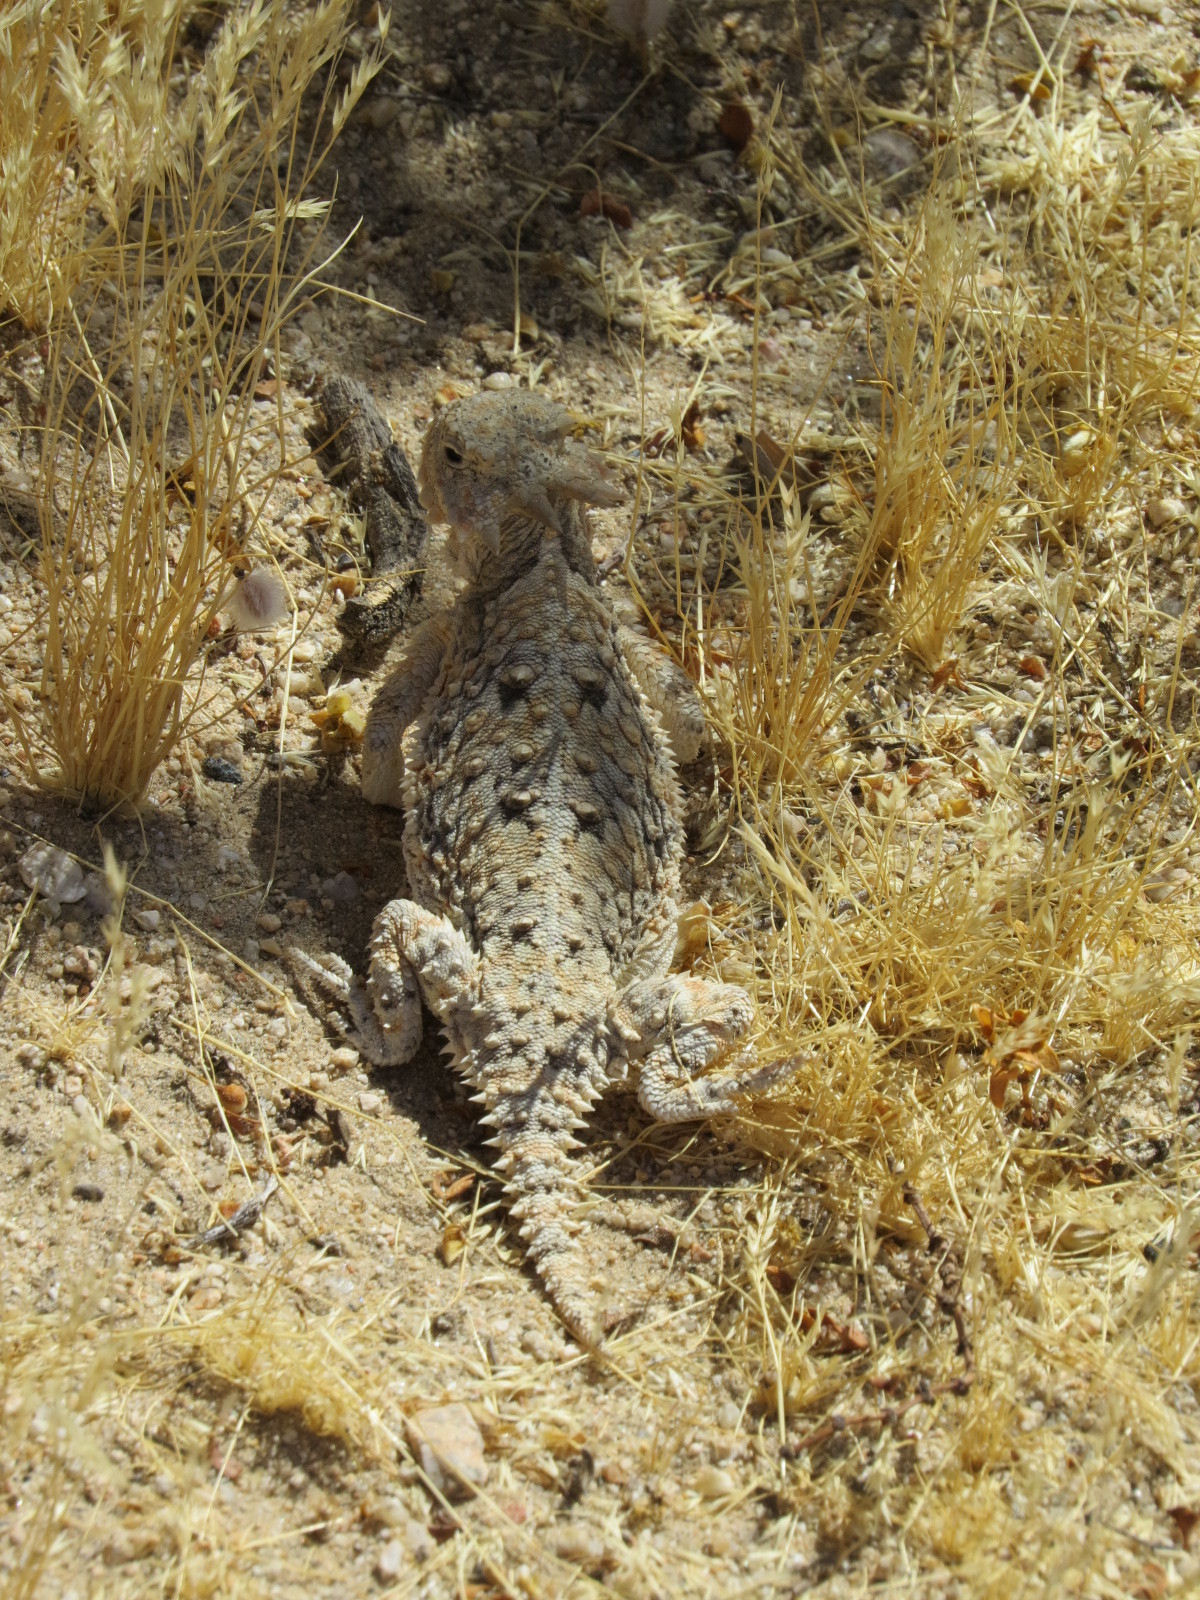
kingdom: Animalia
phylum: Chordata
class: Squamata
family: Phrynosomatidae
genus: Phrynosoma
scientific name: Phrynosoma platyrhinos
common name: Desert horned lizard
